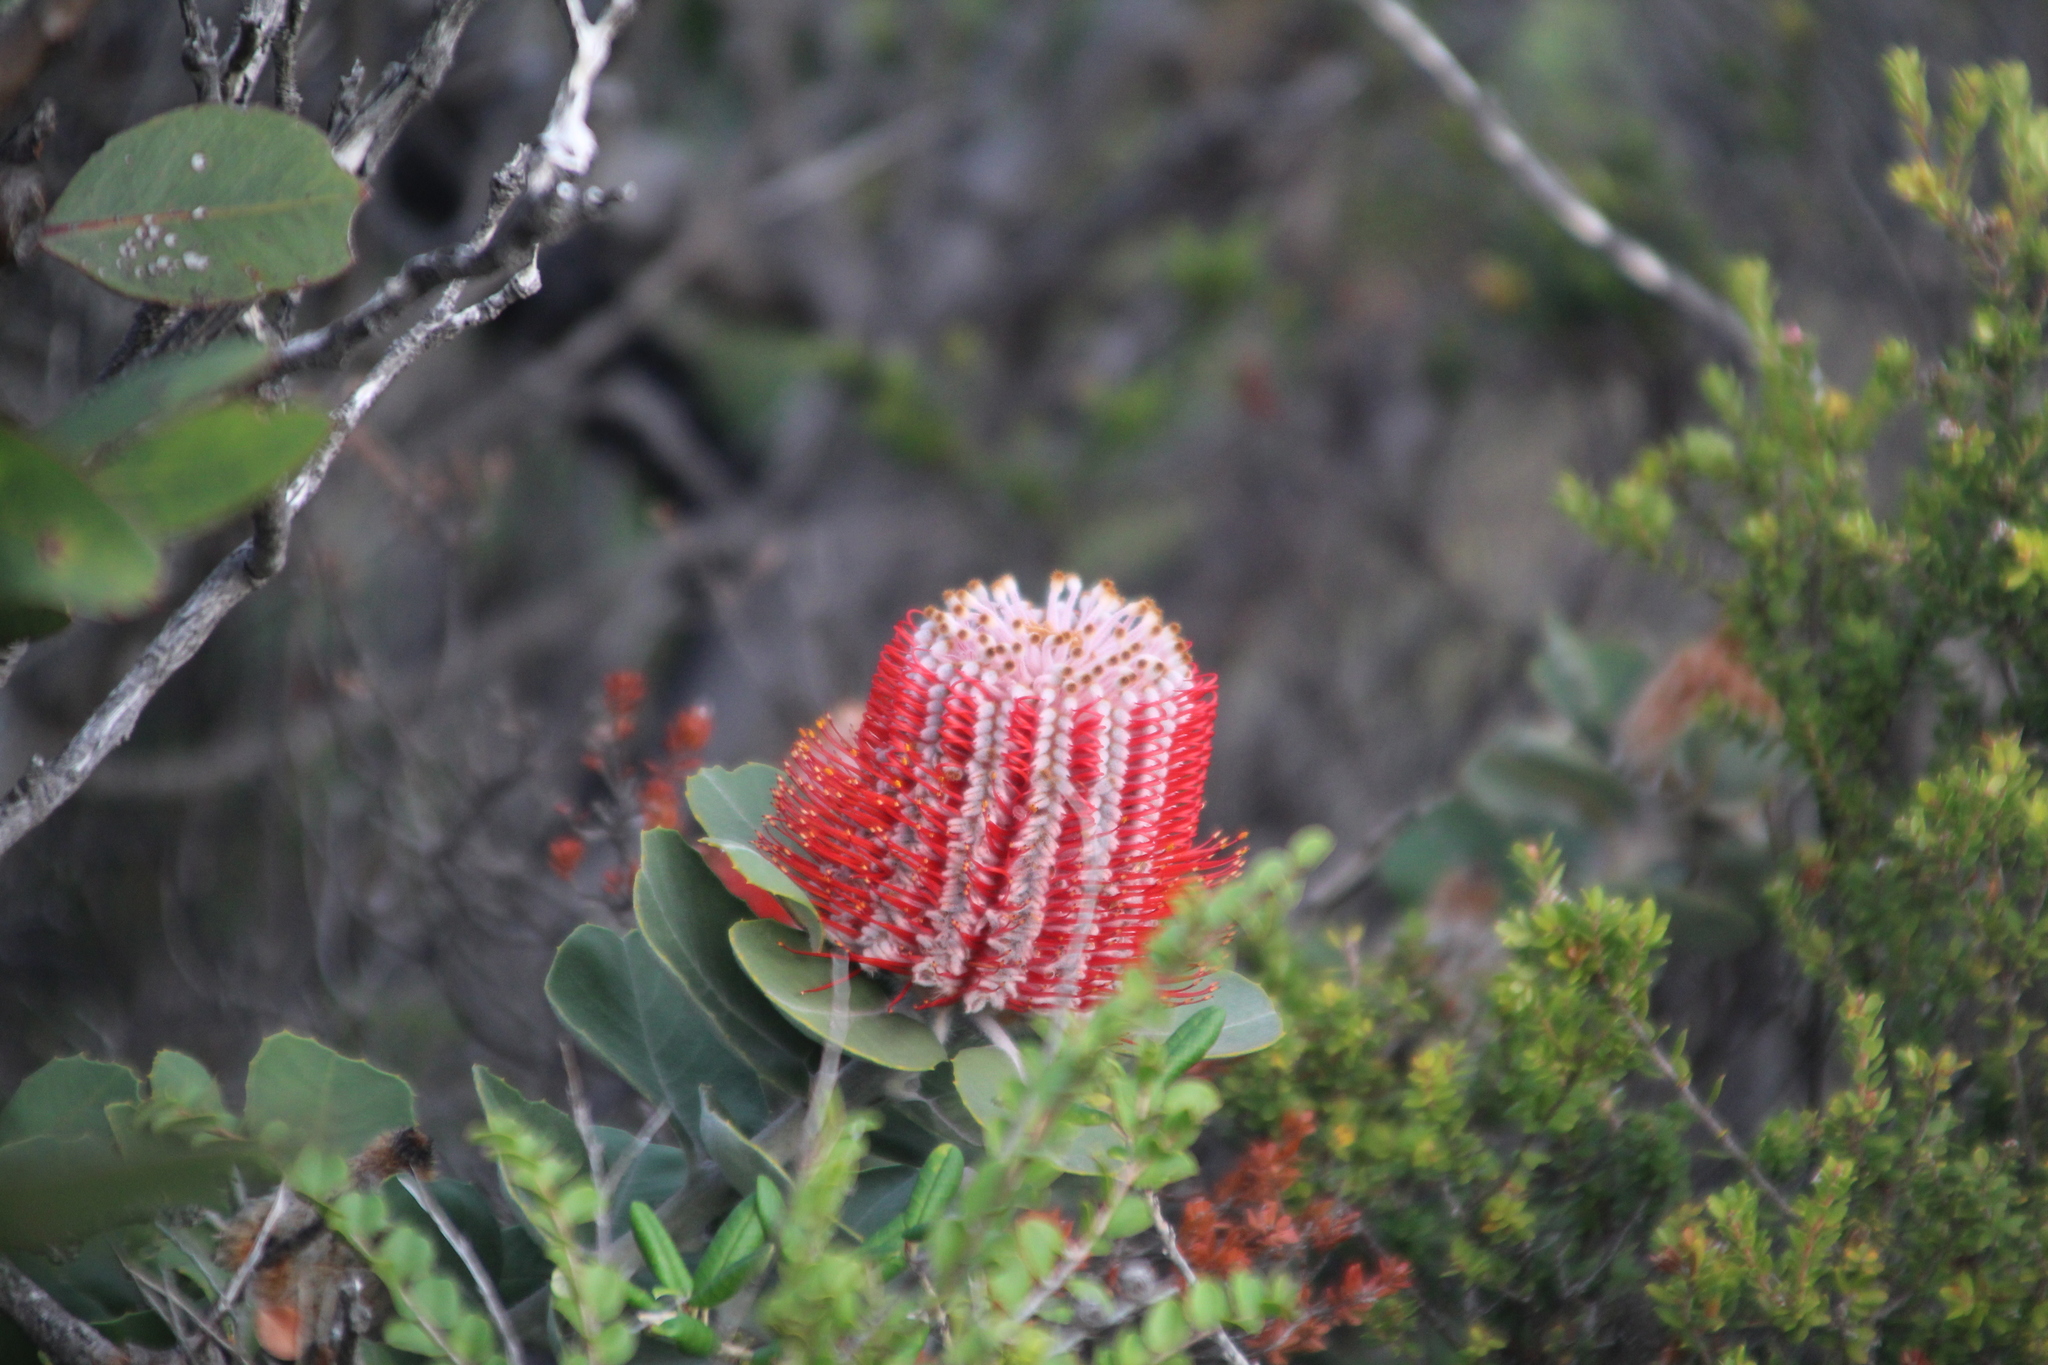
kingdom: Plantae
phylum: Tracheophyta
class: Magnoliopsida
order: Proteales
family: Proteaceae
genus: Banksia
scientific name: Banksia coccinea
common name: Scarlet banksia
